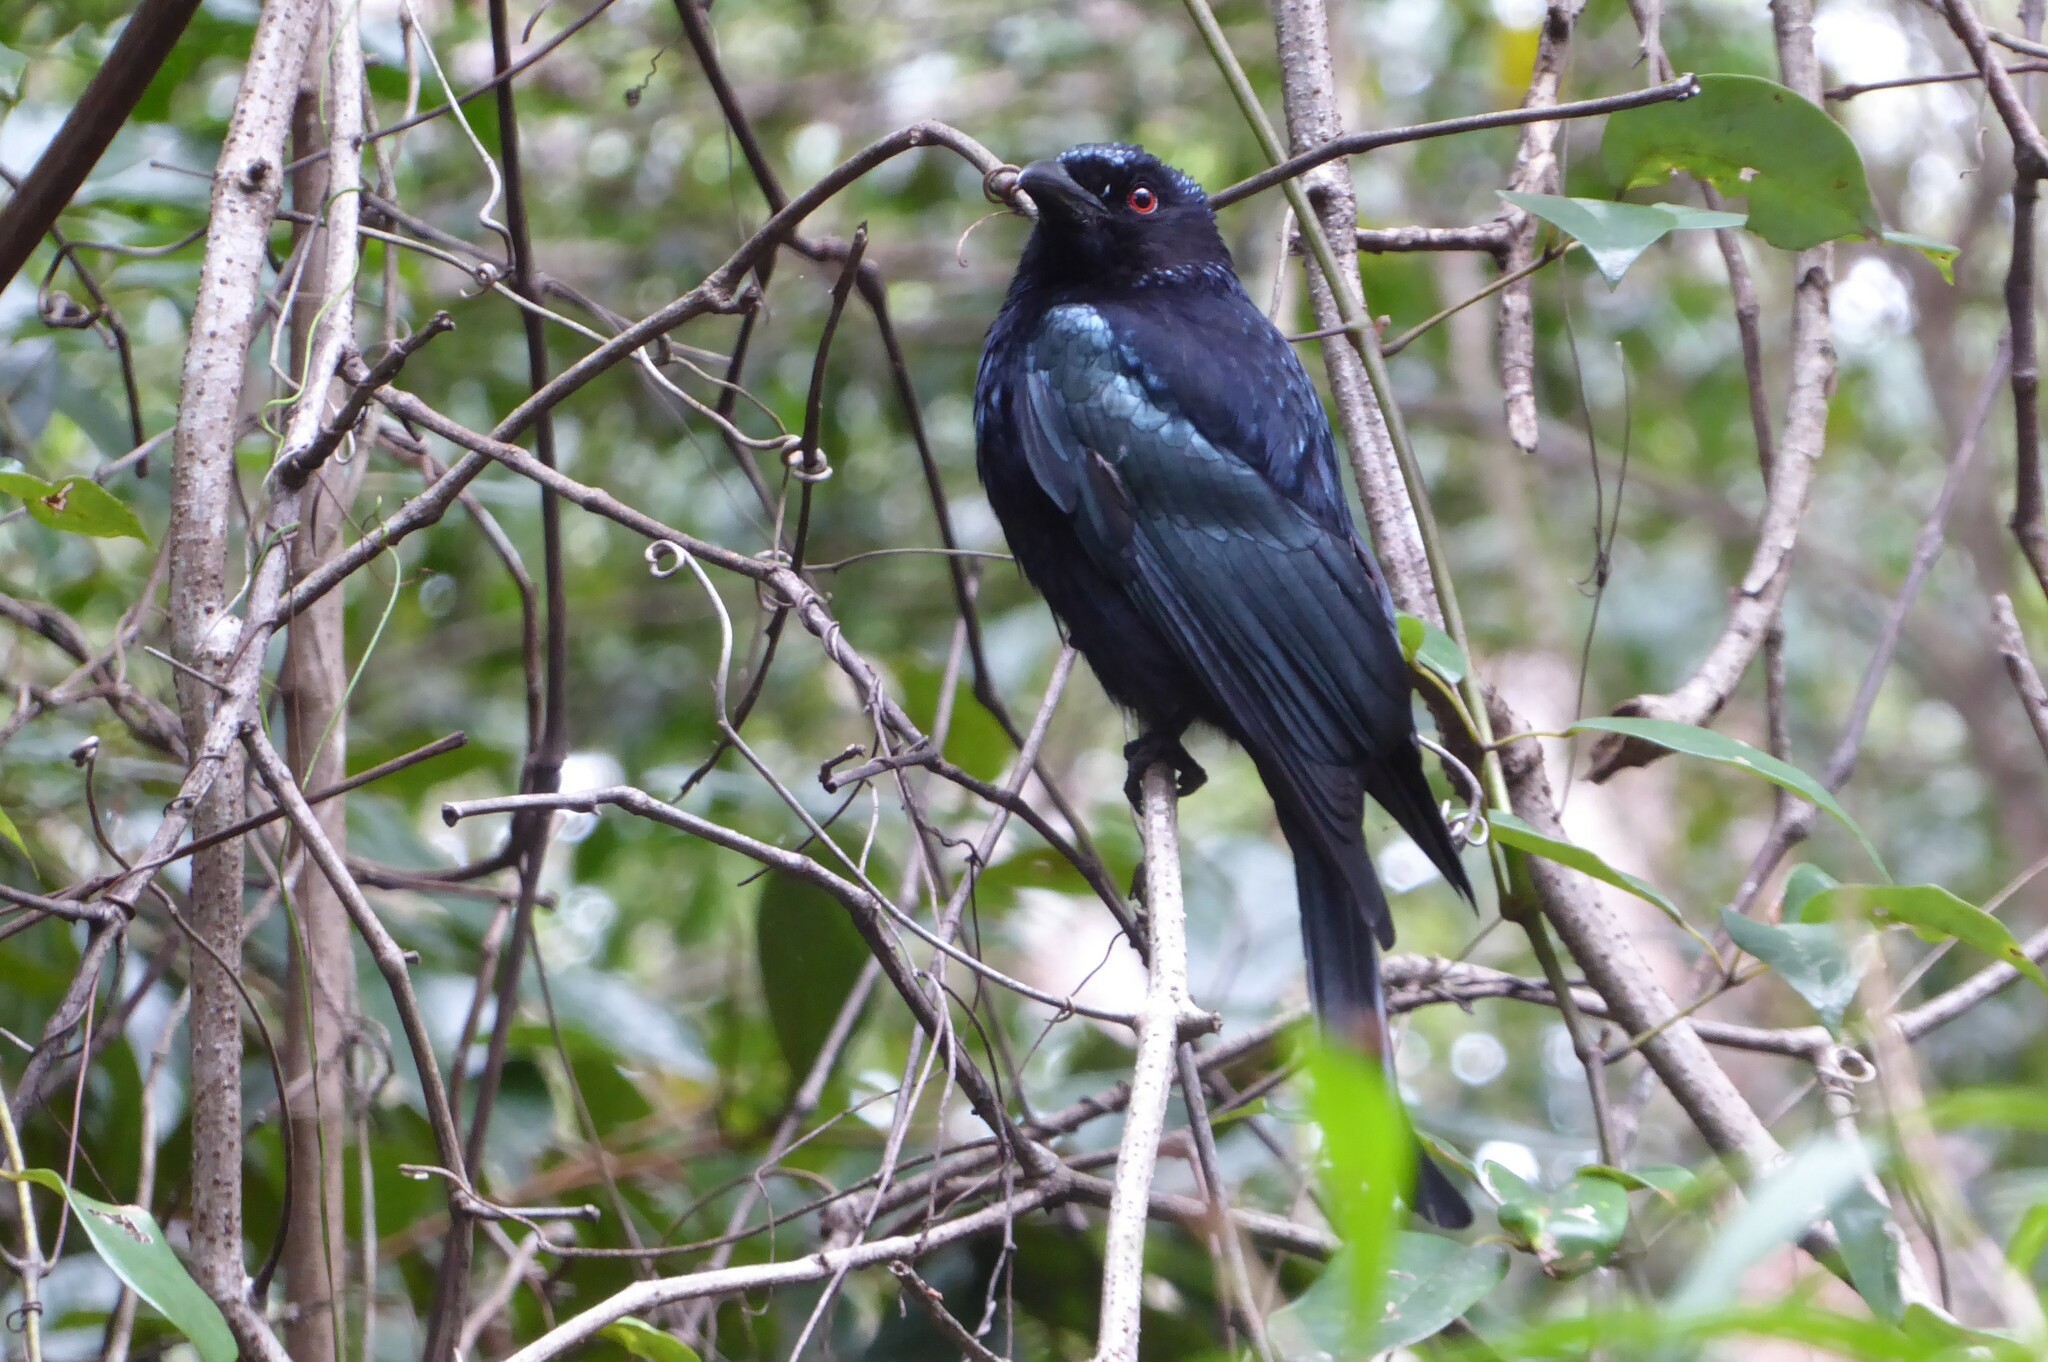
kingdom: Animalia
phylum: Chordata
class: Aves
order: Passeriformes
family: Dicruridae
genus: Dicrurus
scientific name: Dicrurus bracteatus
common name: Spangled drongo
